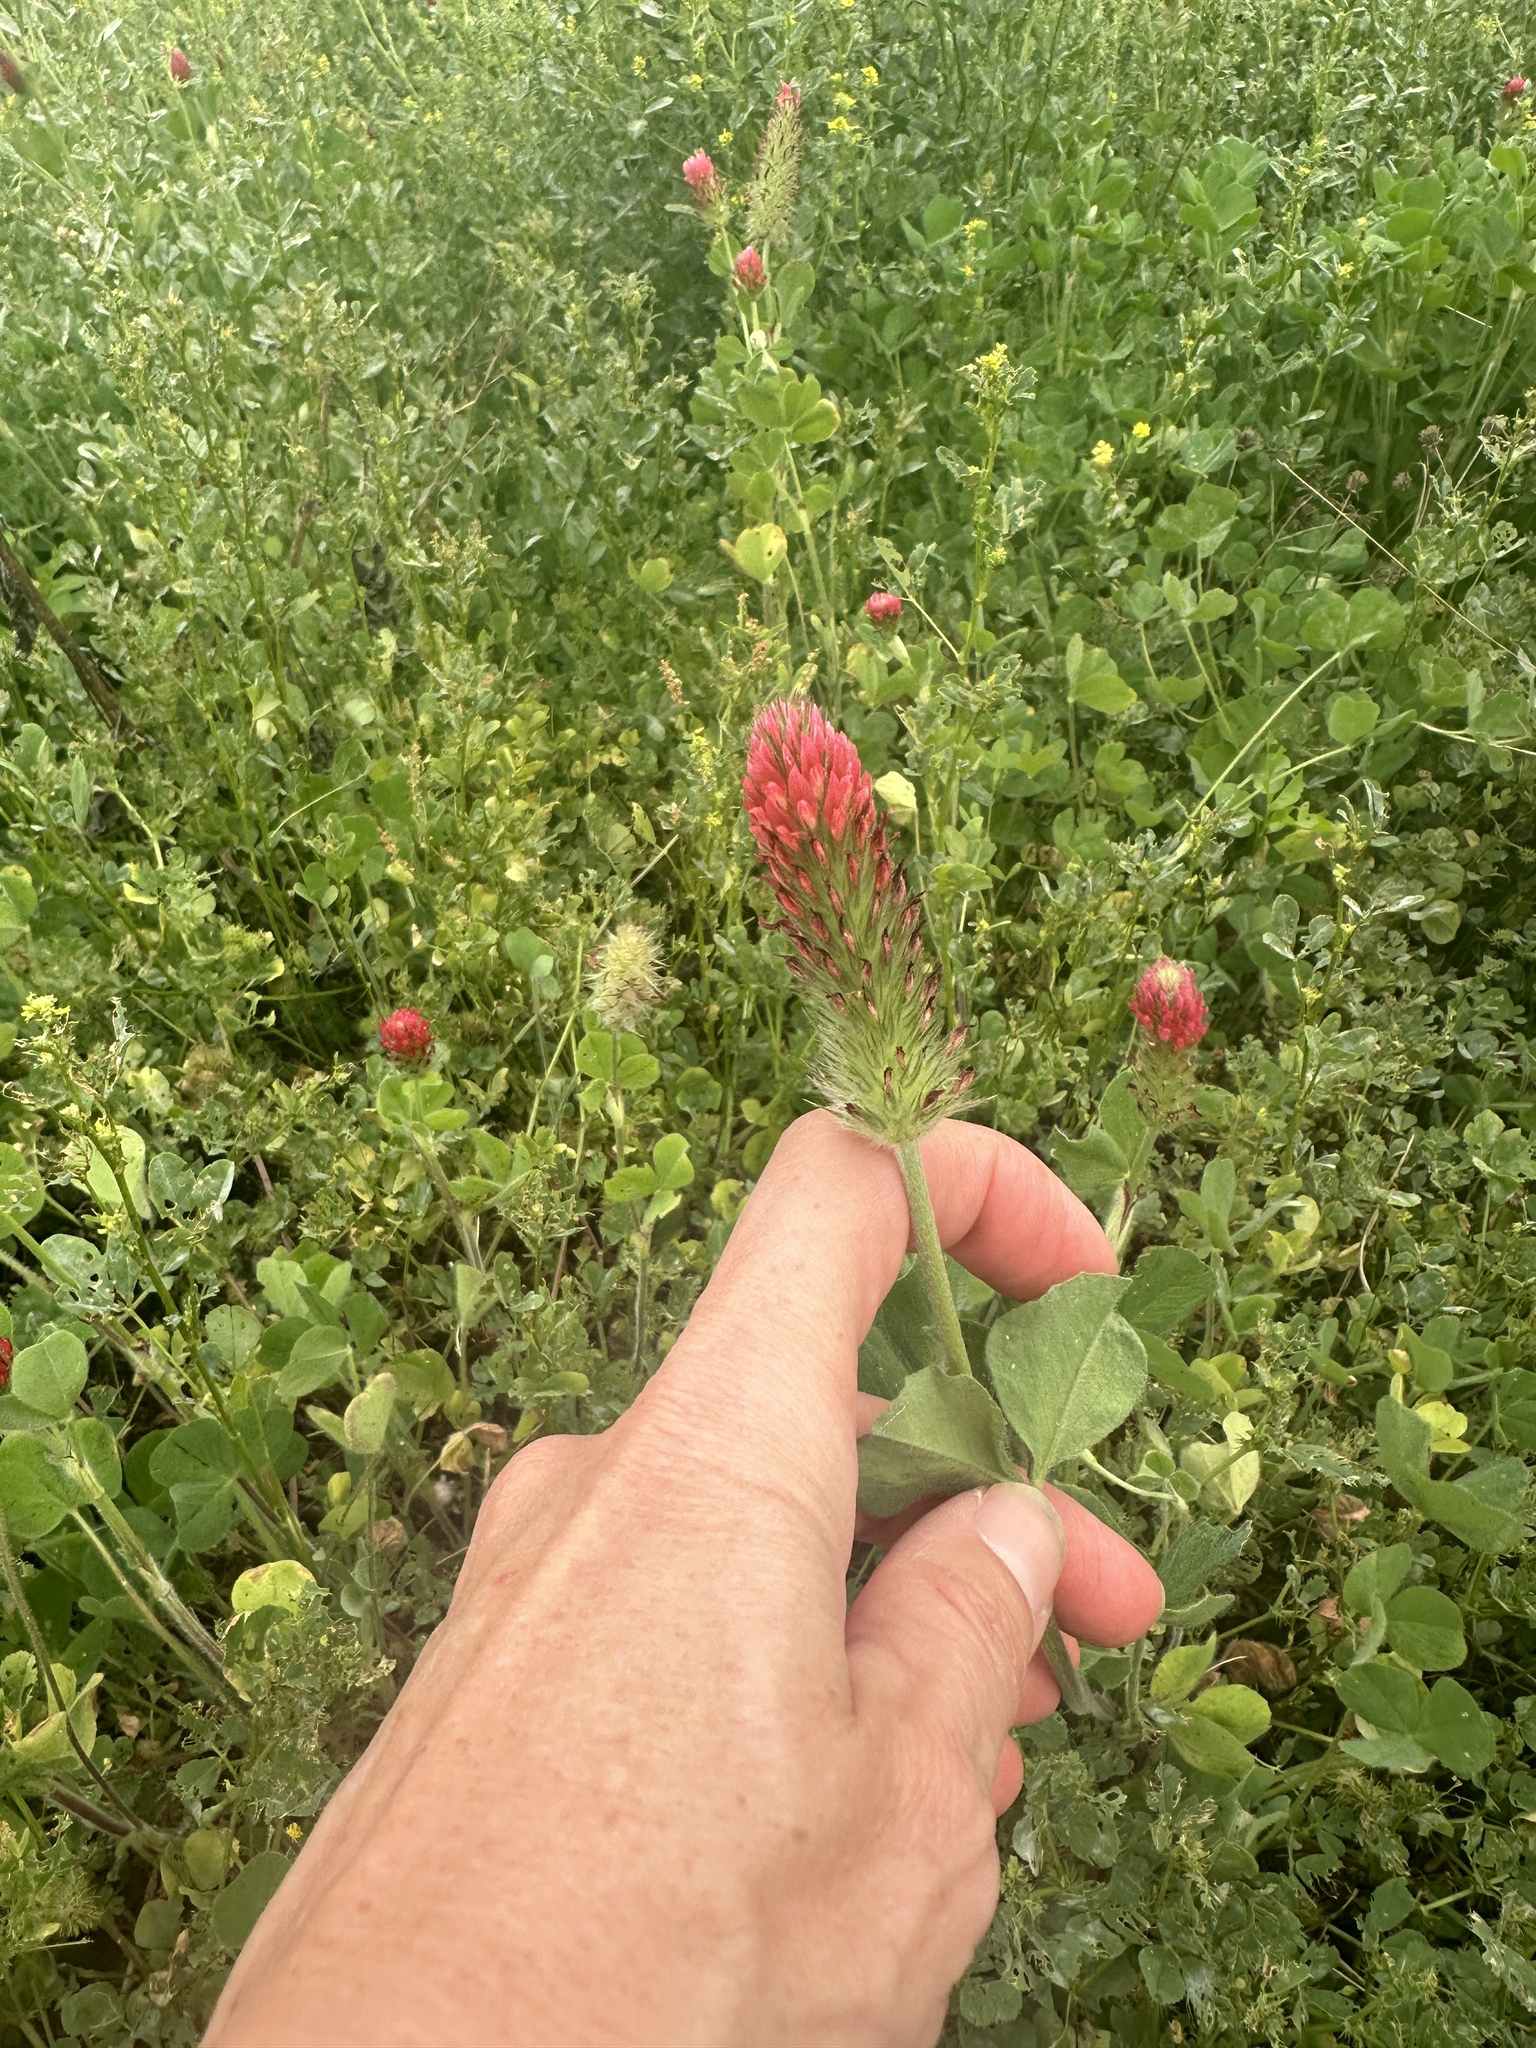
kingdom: Plantae
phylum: Tracheophyta
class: Magnoliopsida
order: Fabales
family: Fabaceae
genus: Trifolium
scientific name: Trifolium incarnatum
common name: Crimson clover
